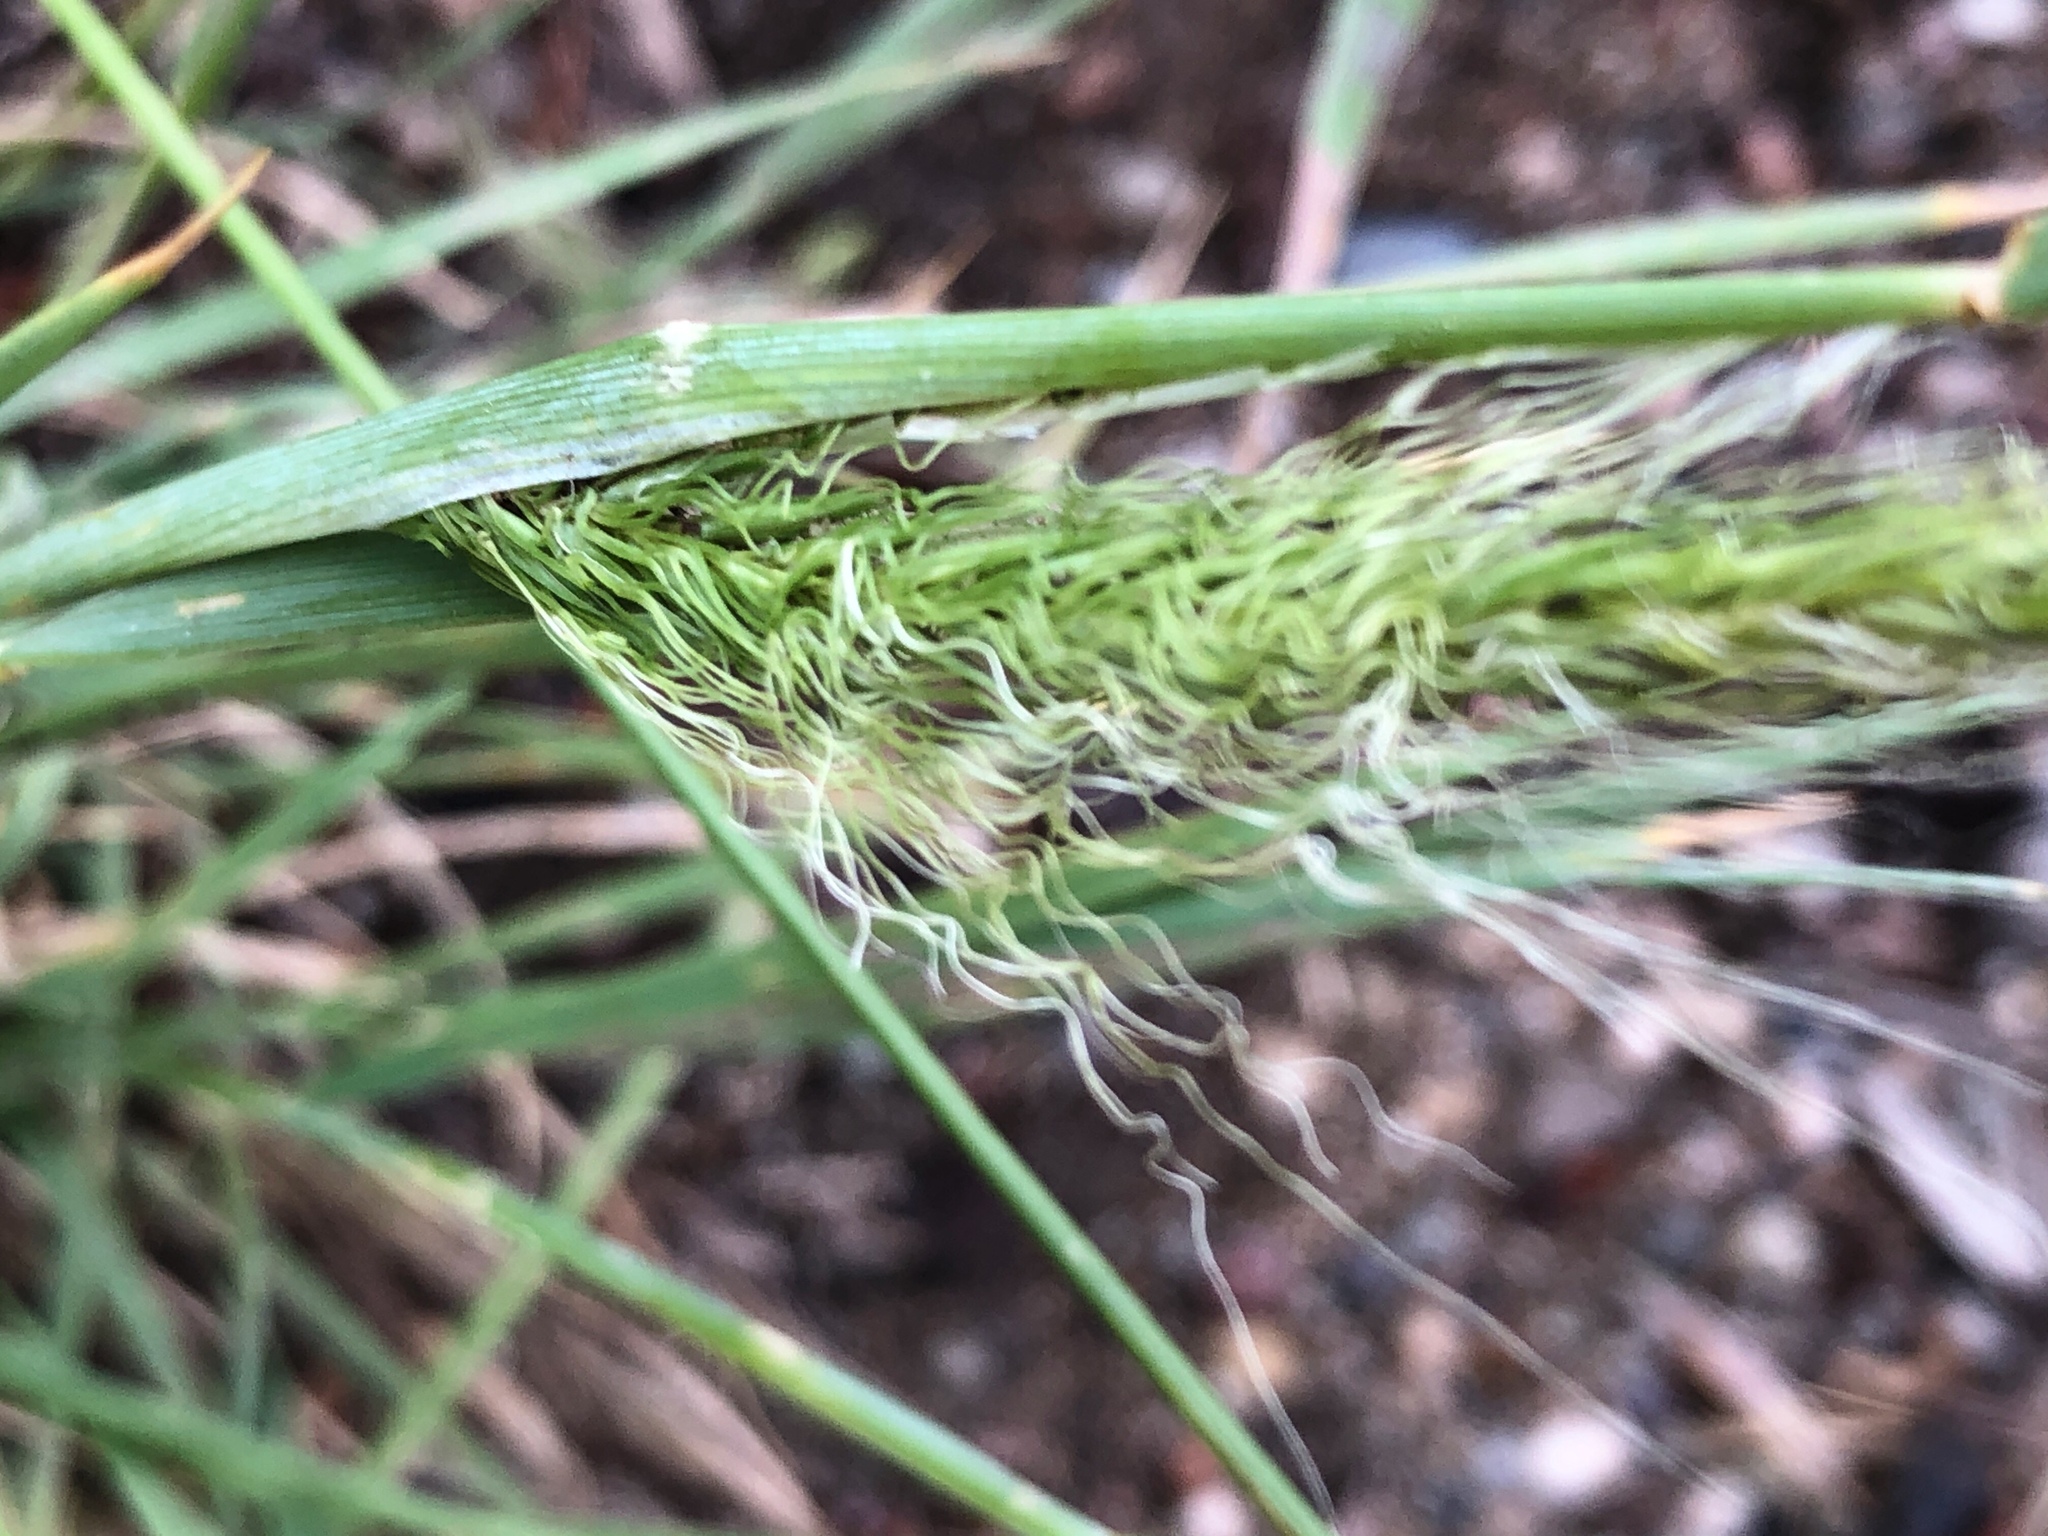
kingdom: Plantae
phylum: Tracheophyta
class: Liliopsida
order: Poales
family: Poaceae
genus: Hordeum
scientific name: Hordeum jubatum
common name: Foxtail barley
